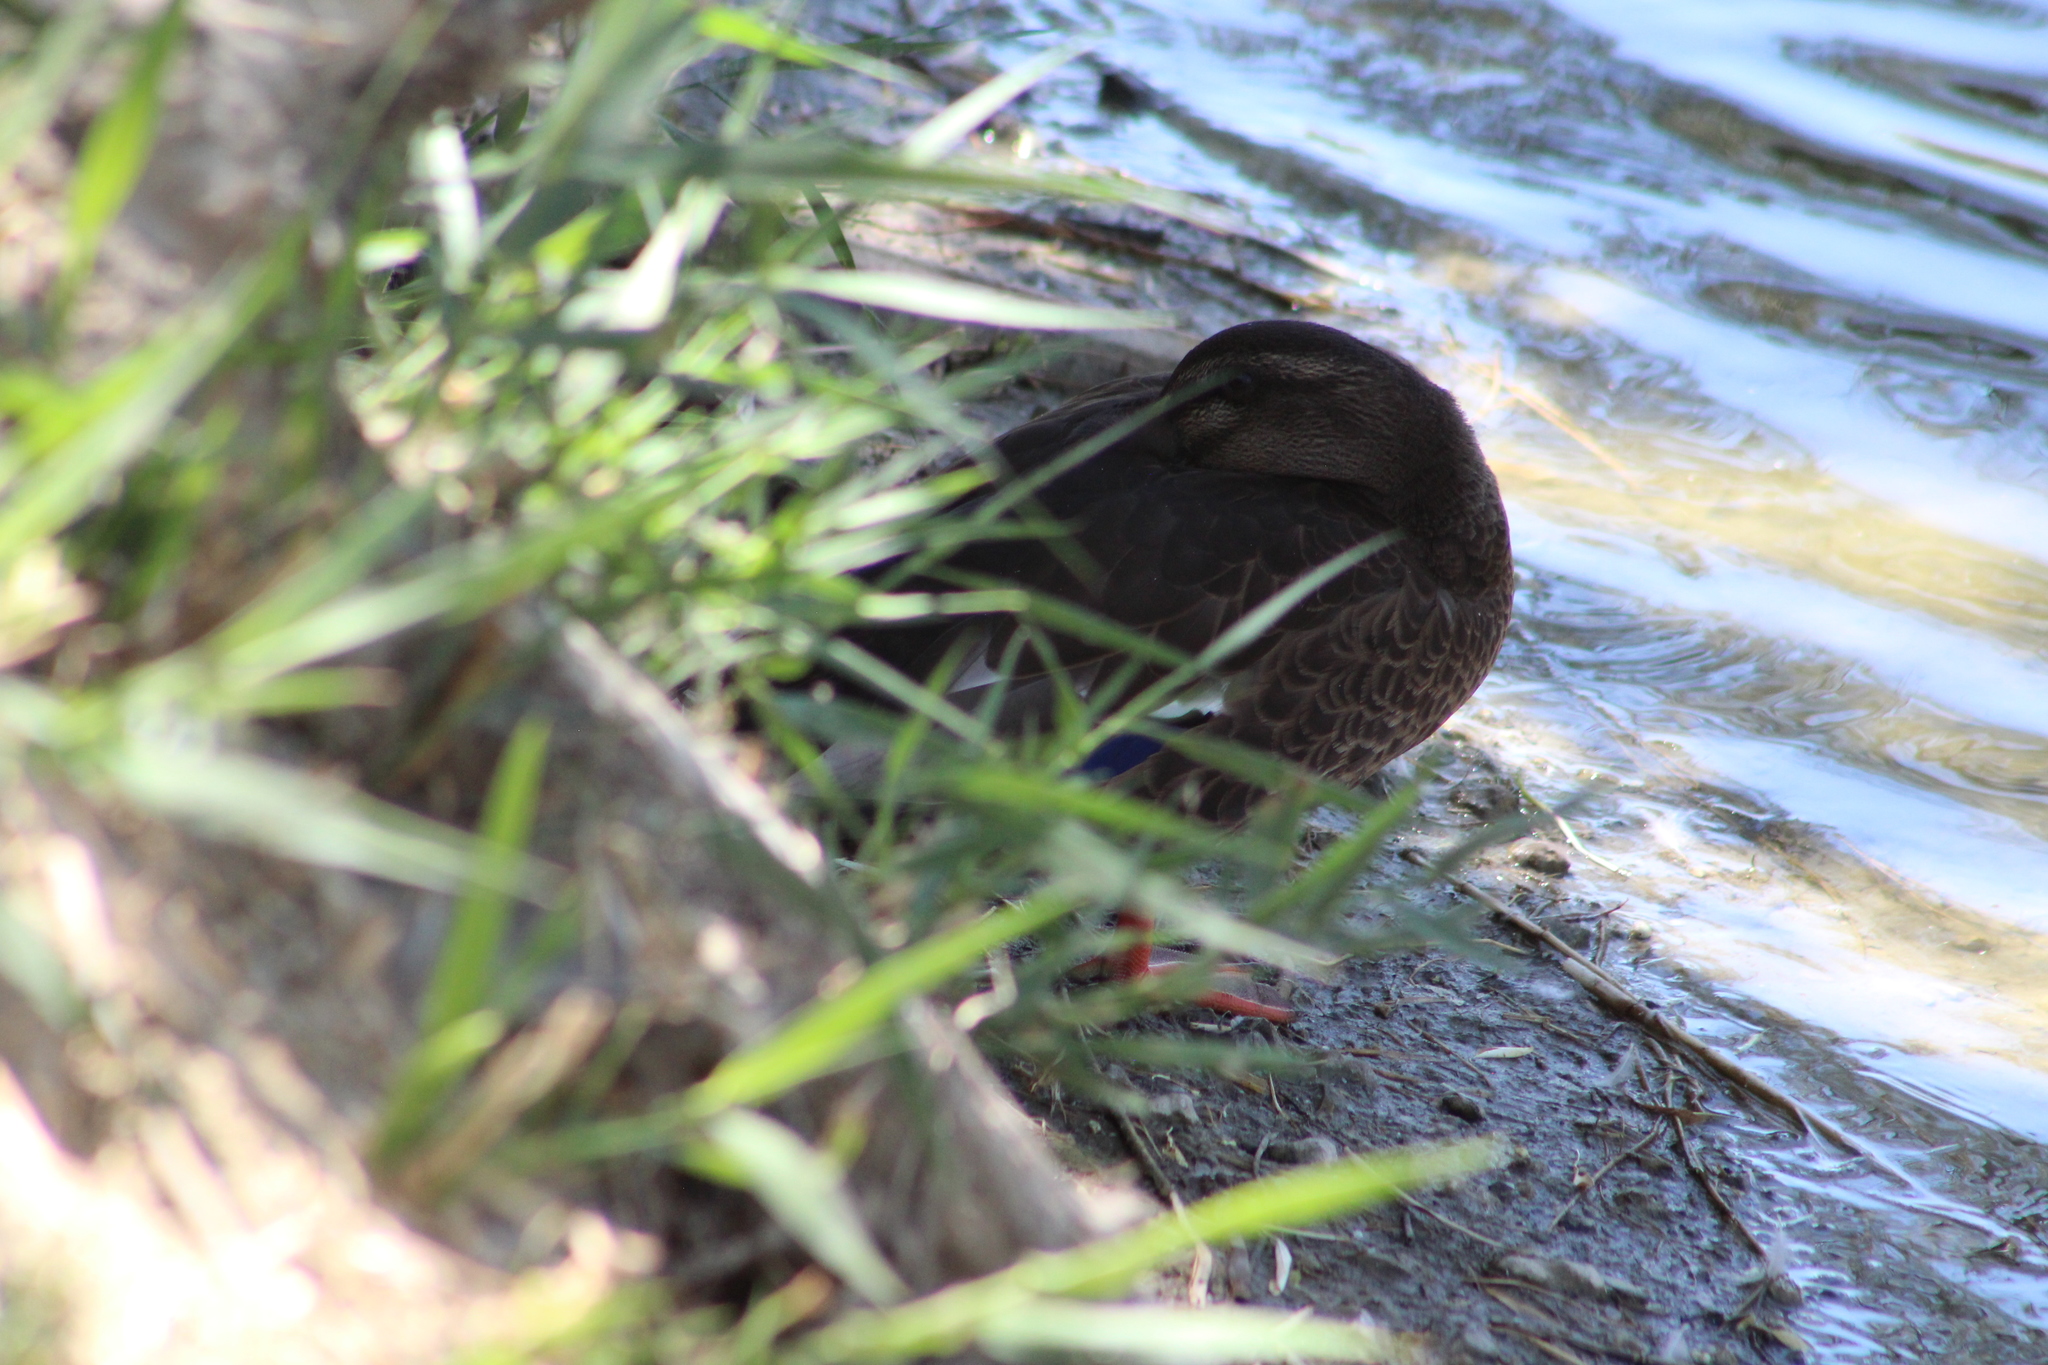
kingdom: Animalia
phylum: Chordata
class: Aves
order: Anseriformes
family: Anatidae
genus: Anas
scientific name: Anas platyrhynchos
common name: Mallard
